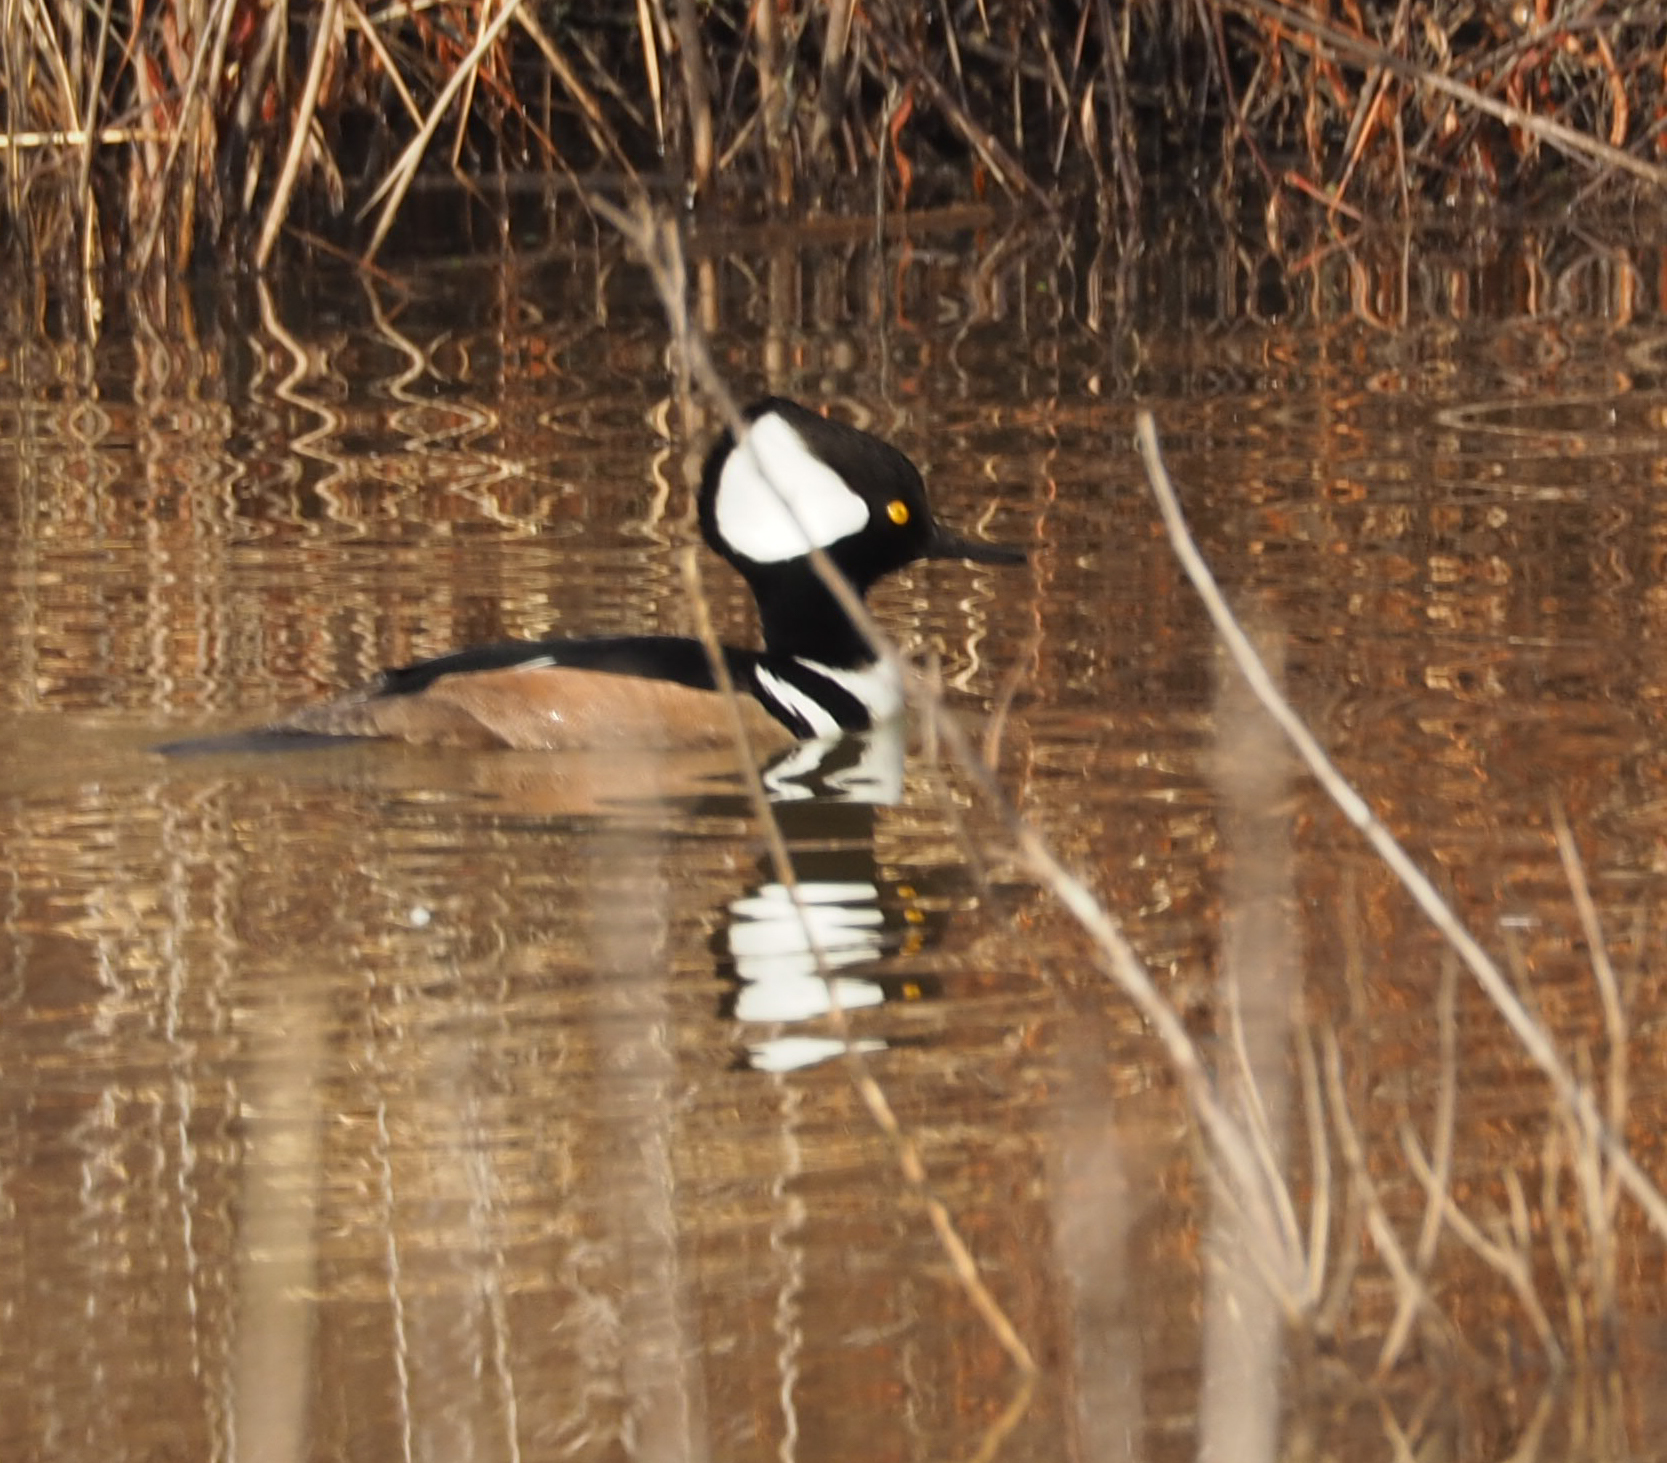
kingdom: Animalia
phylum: Chordata
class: Aves
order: Anseriformes
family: Anatidae
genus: Lophodytes
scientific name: Lophodytes cucullatus
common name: Hooded merganser
